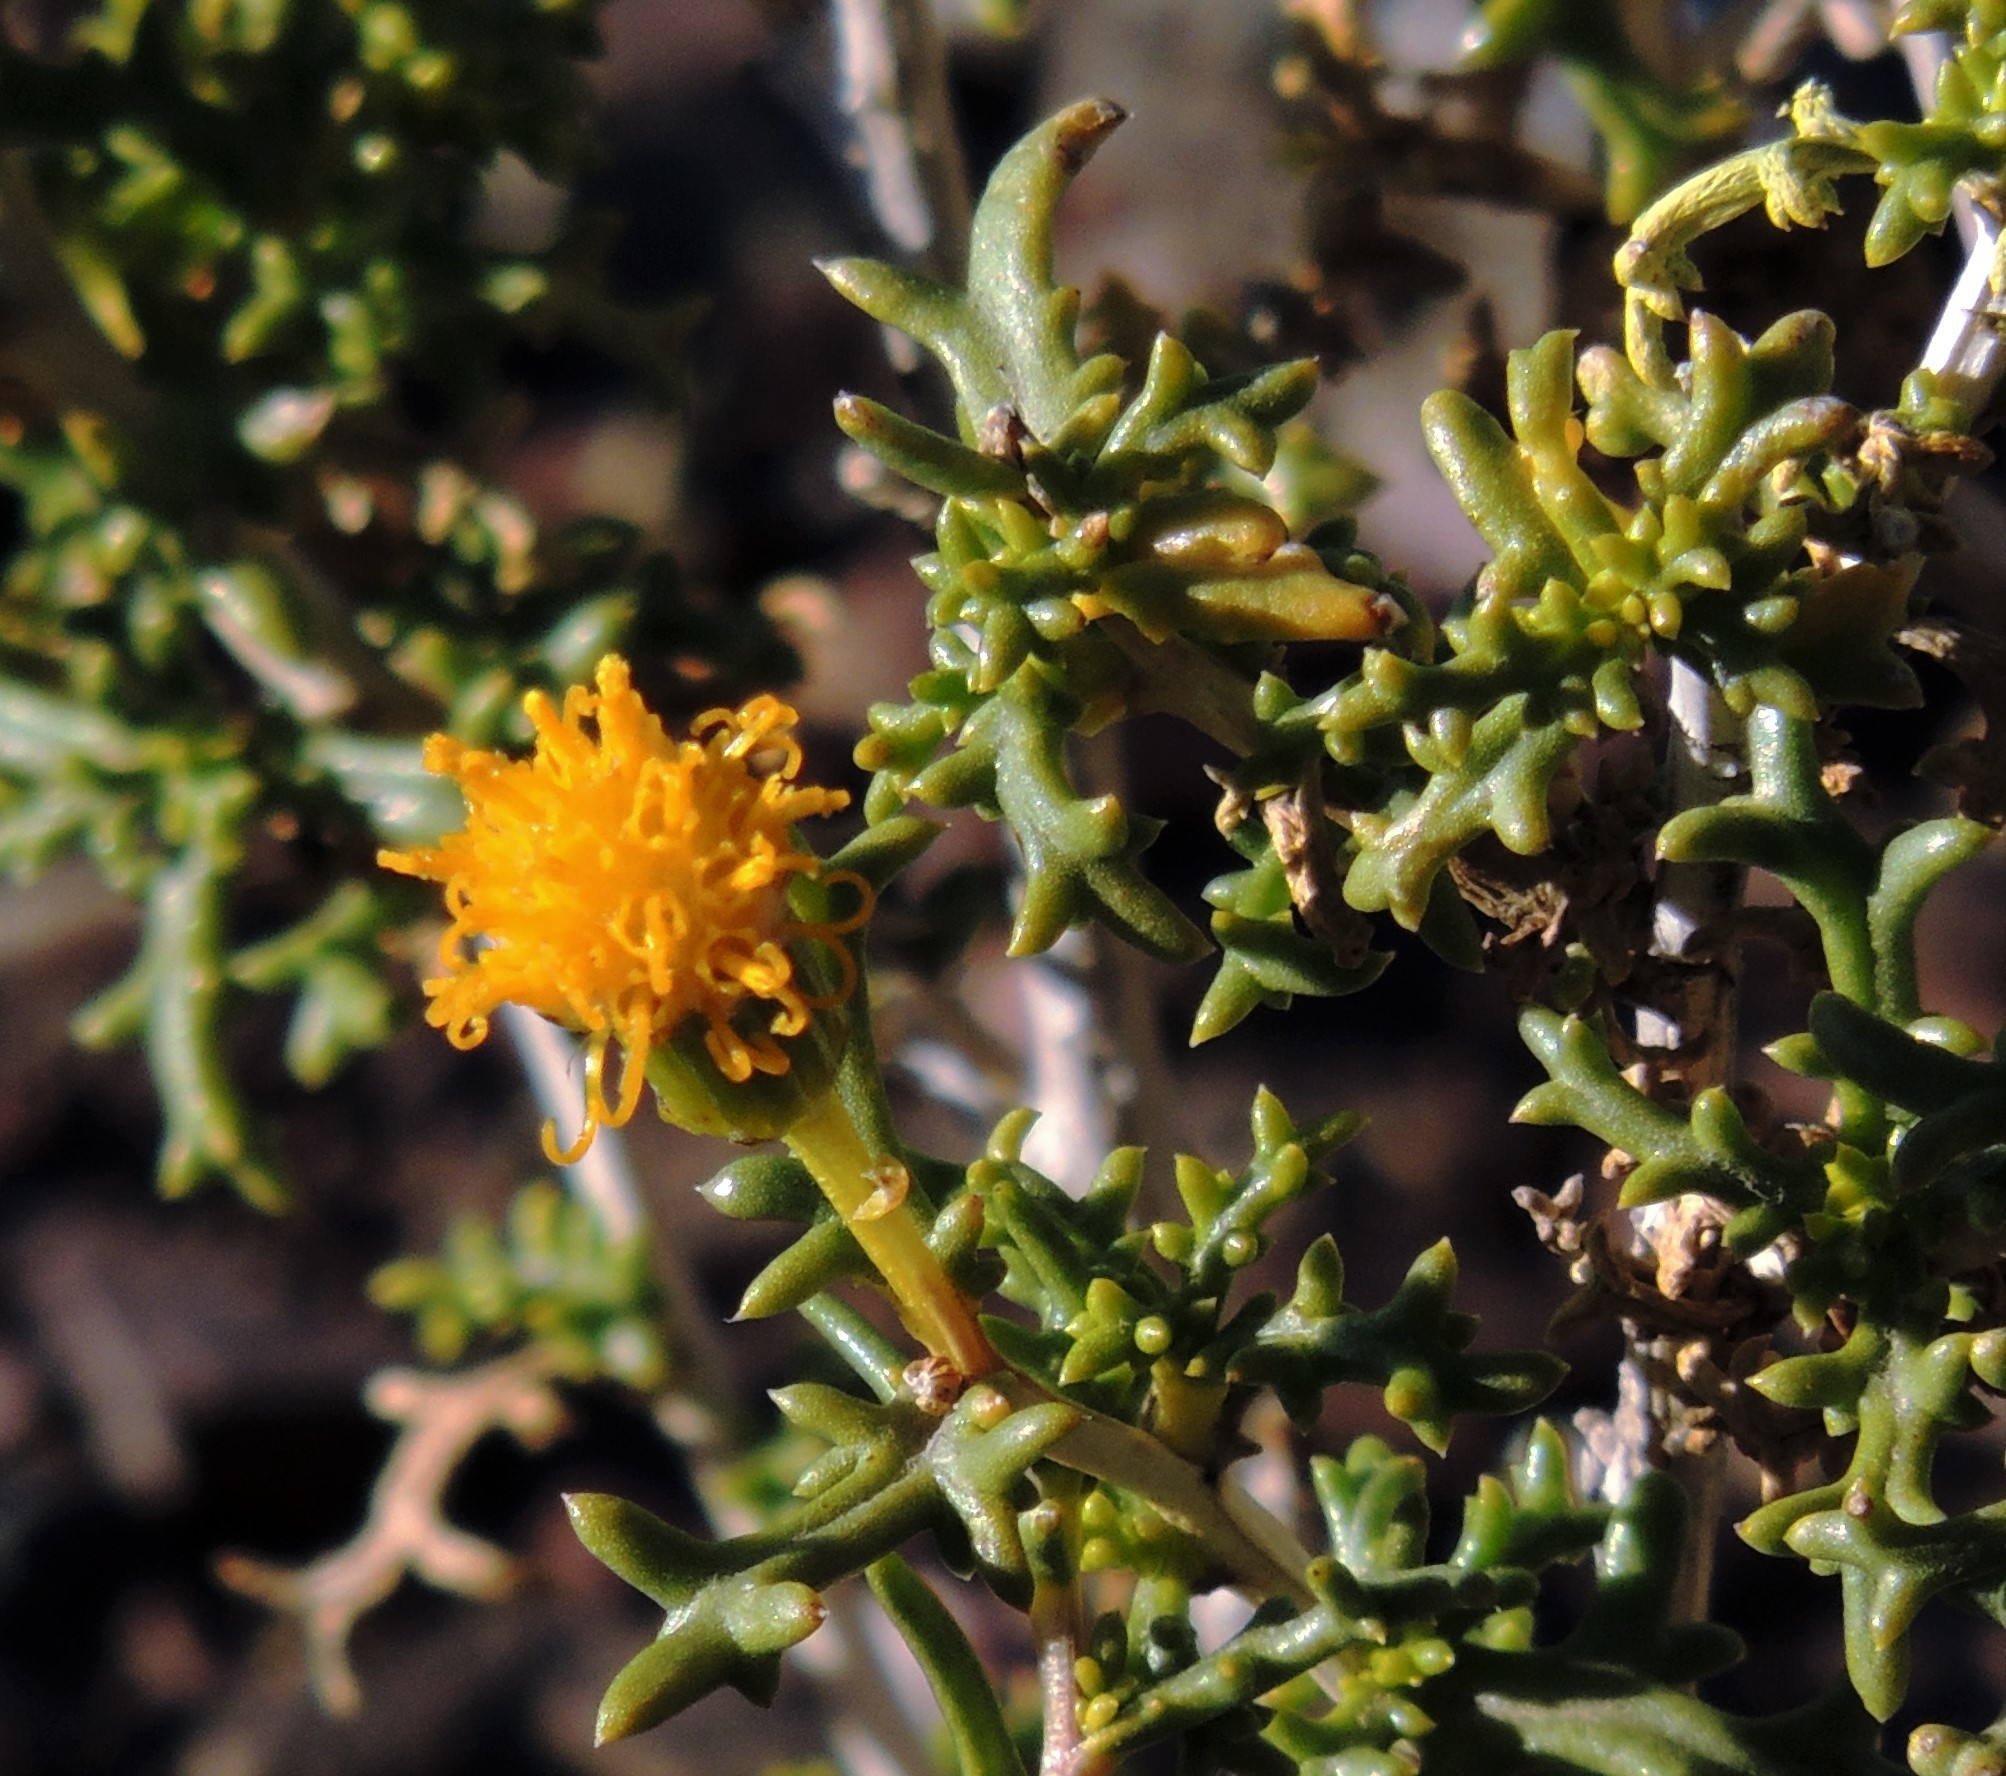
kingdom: Plantae
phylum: Tracheophyta
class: Magnoliopsida
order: Asterales
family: Asteraceae
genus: Senecio
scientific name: Senecio nutans
